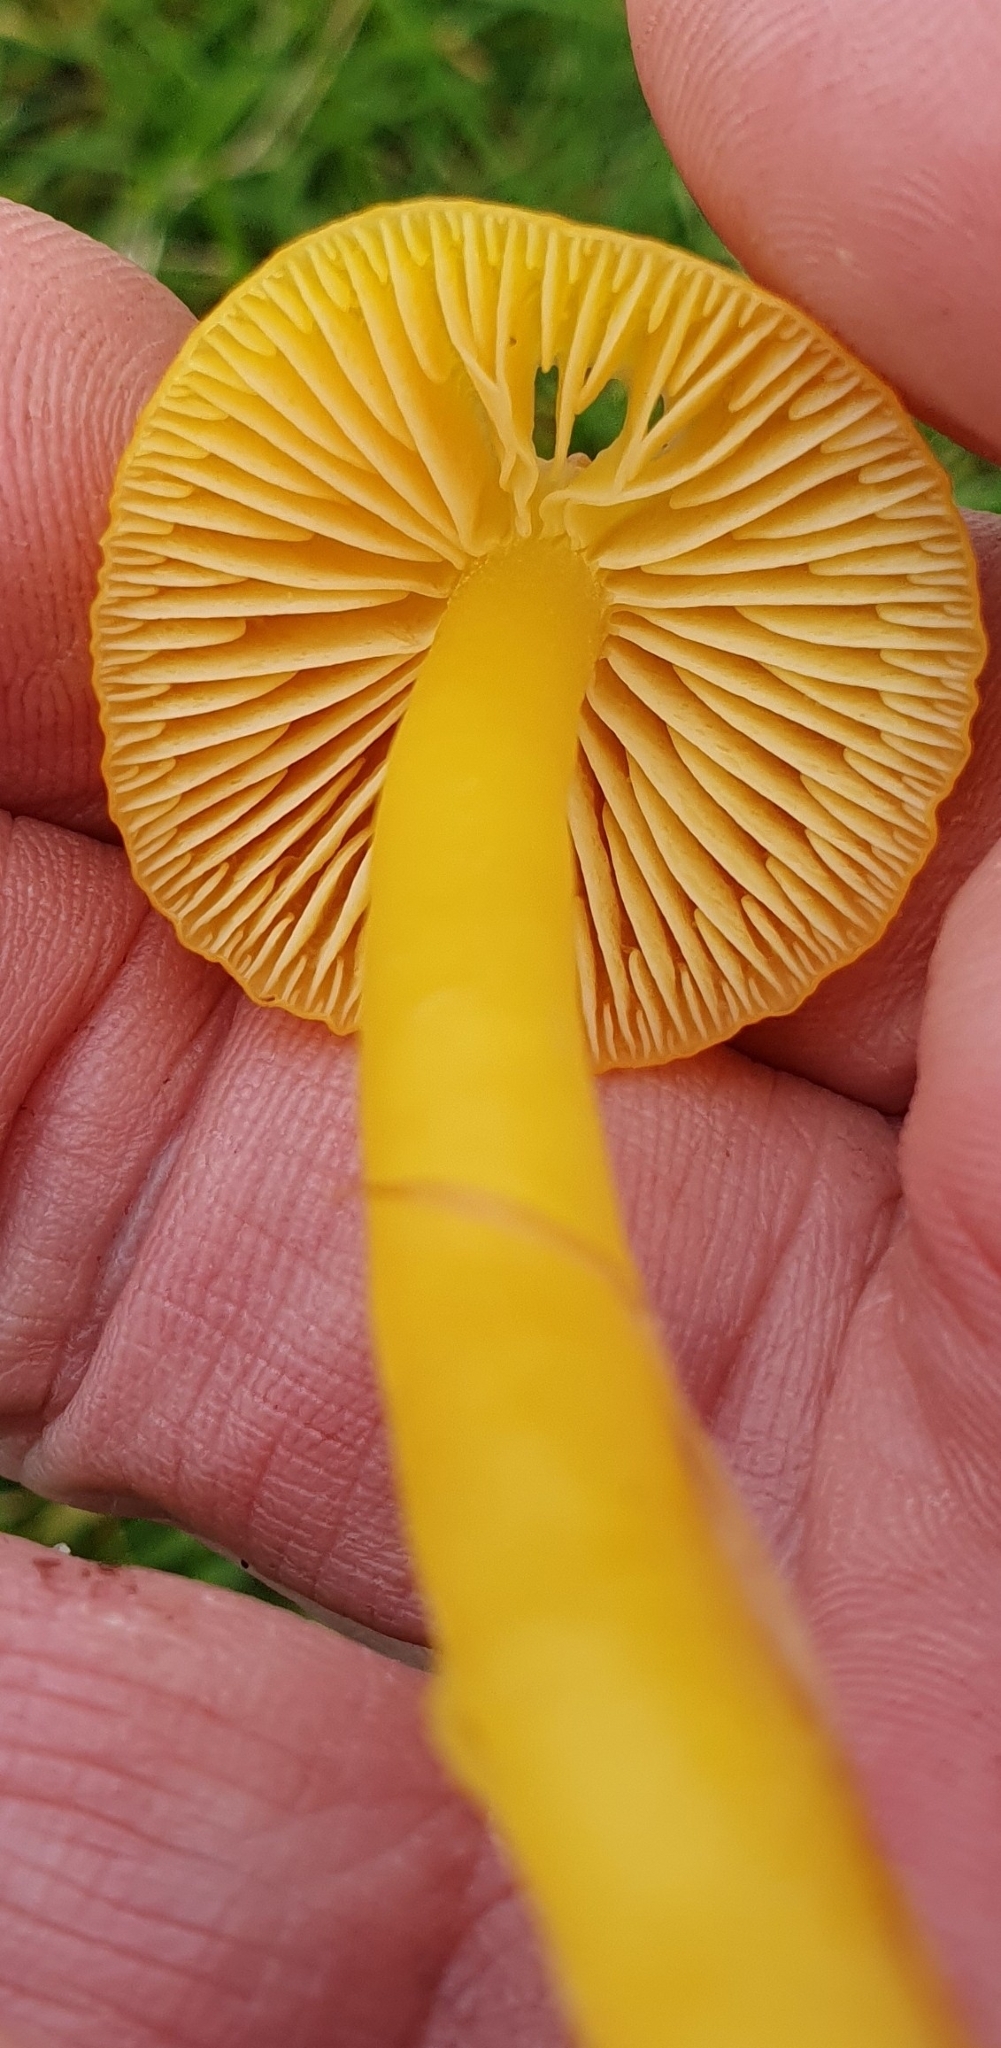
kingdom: Fungi
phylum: Basidiomycota
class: Agaricomycetes
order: Agaricales
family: Hygrophoraceae
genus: Hygrocybe
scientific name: Hygrocybe ceracea
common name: Butter waxcap
